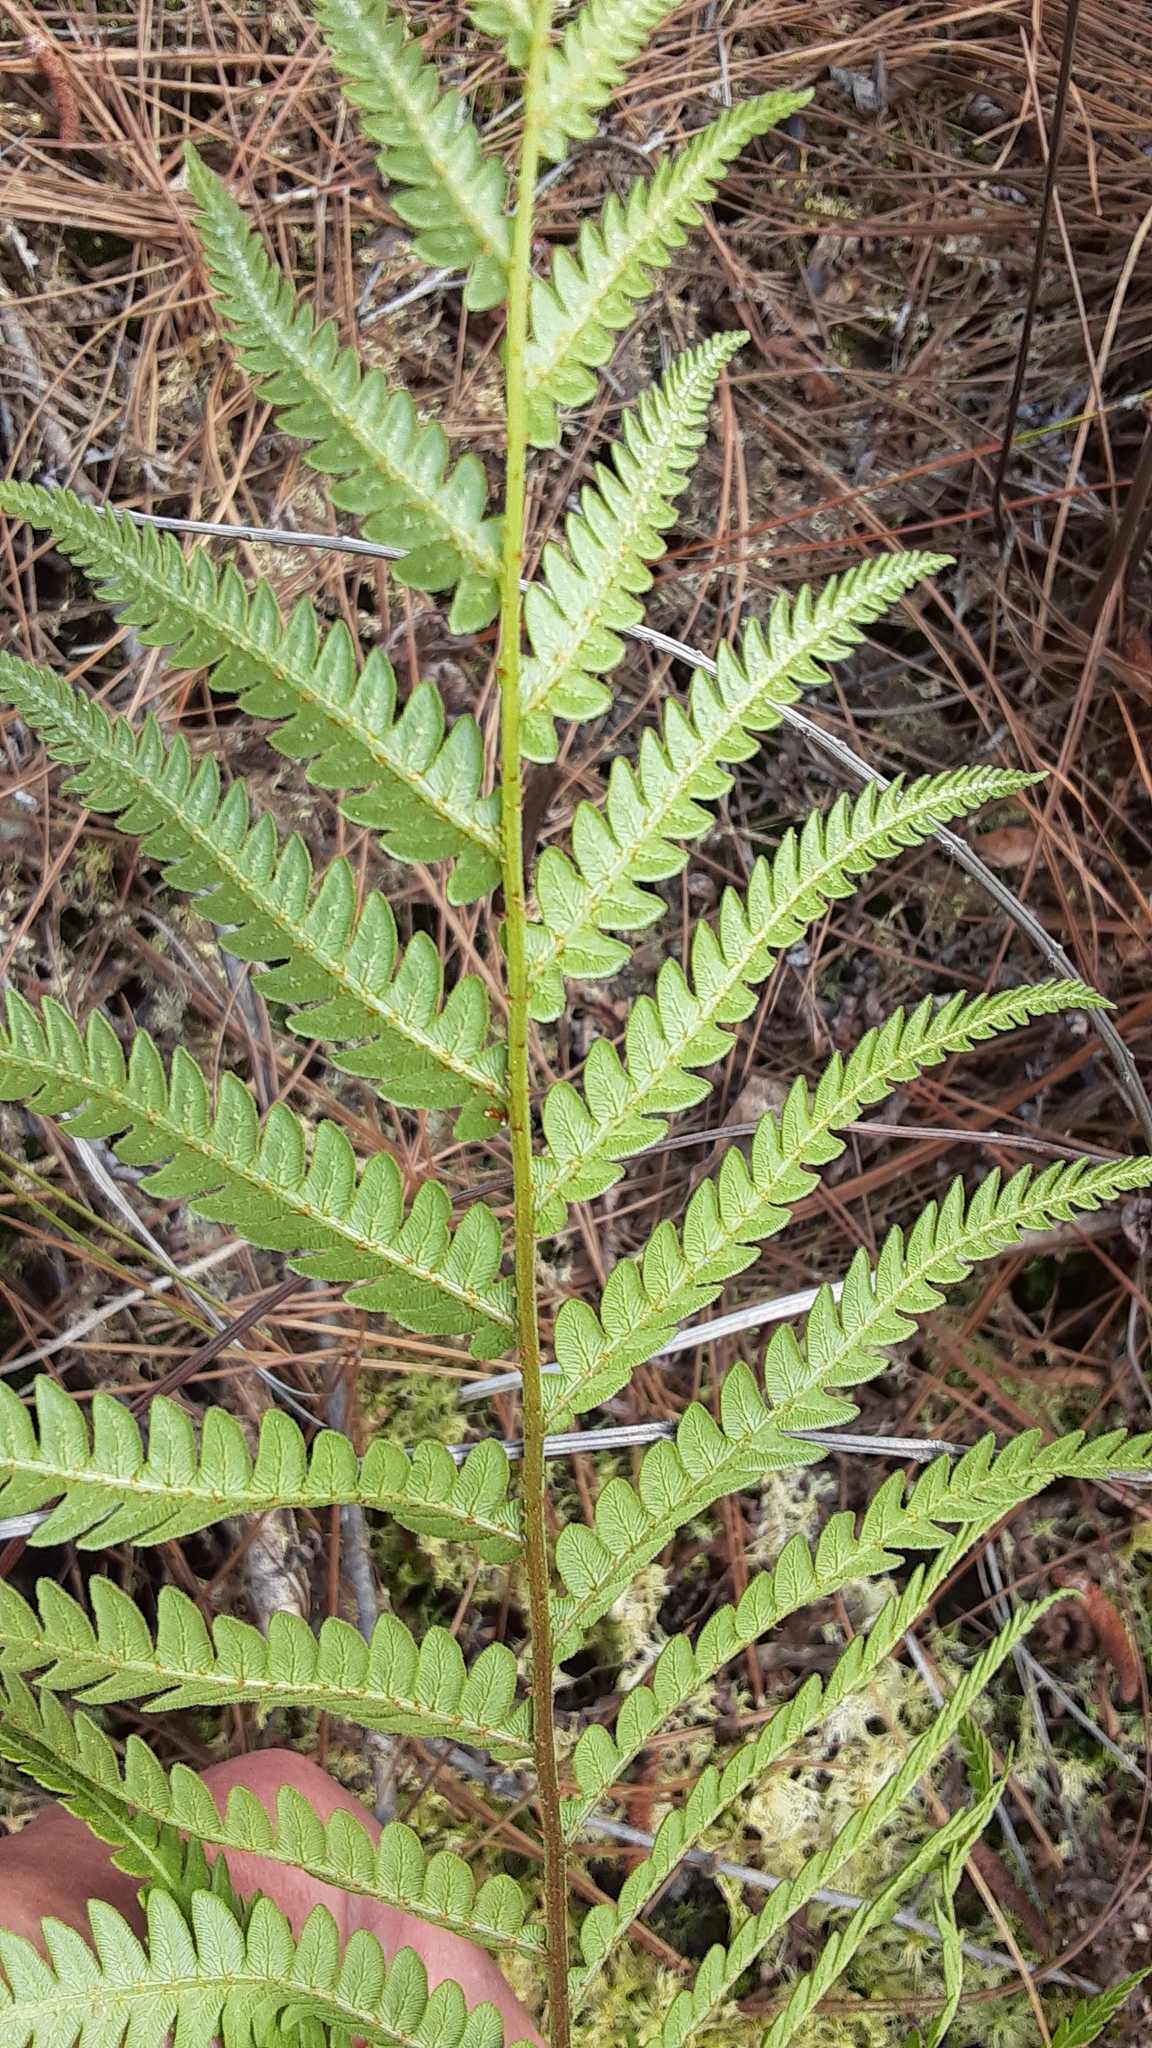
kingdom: Plantae
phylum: Tracheophyta
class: Polypodiopsida
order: Polypodiales
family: Blechnaceae
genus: Anchistea
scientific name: Anchistea virginica
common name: Virginia chain fern
